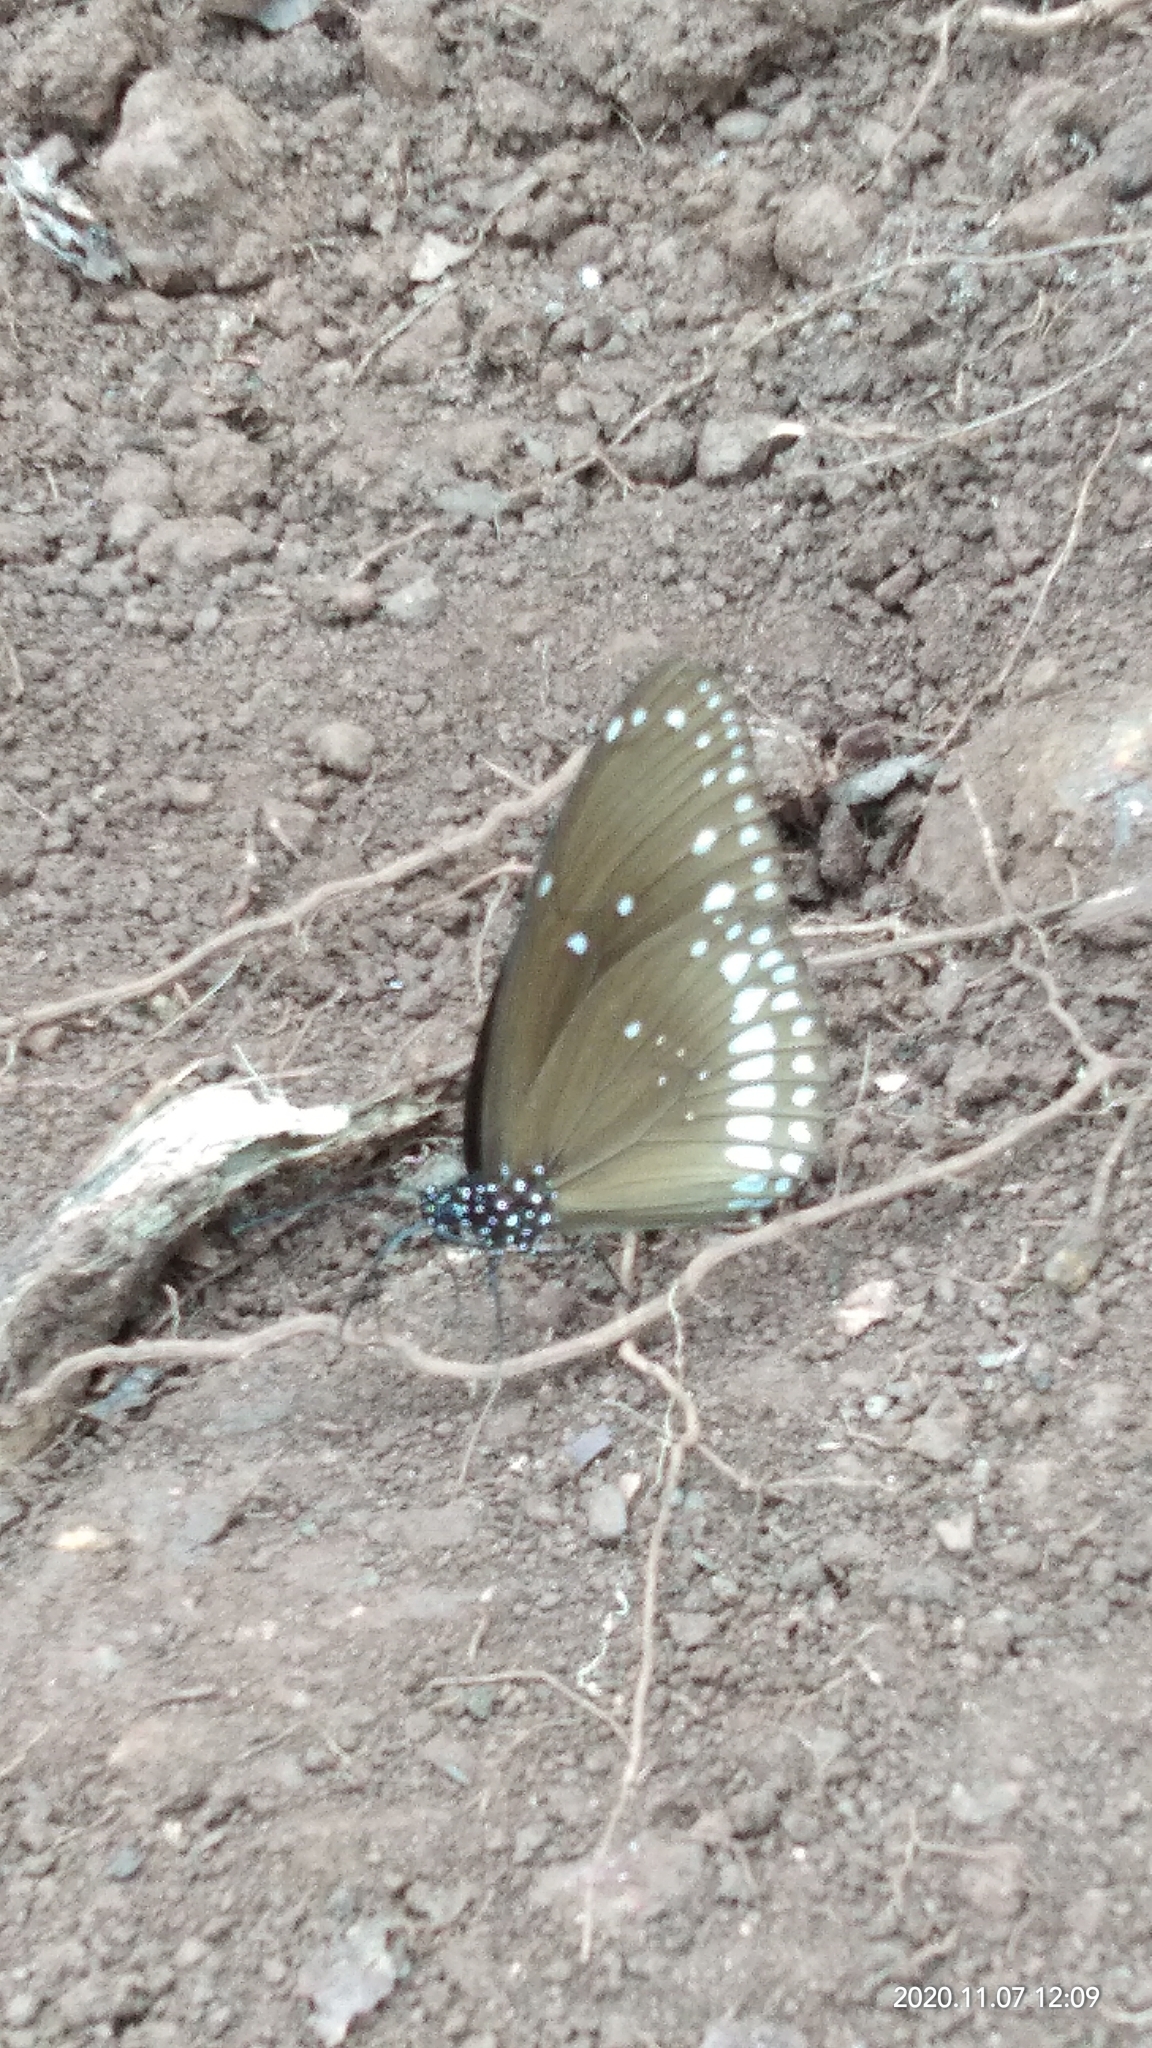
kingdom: Animalia
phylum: Arthropoda
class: Insecta
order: Lepidoptera
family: Nymphalidae
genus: Euploea
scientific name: Euploea core
